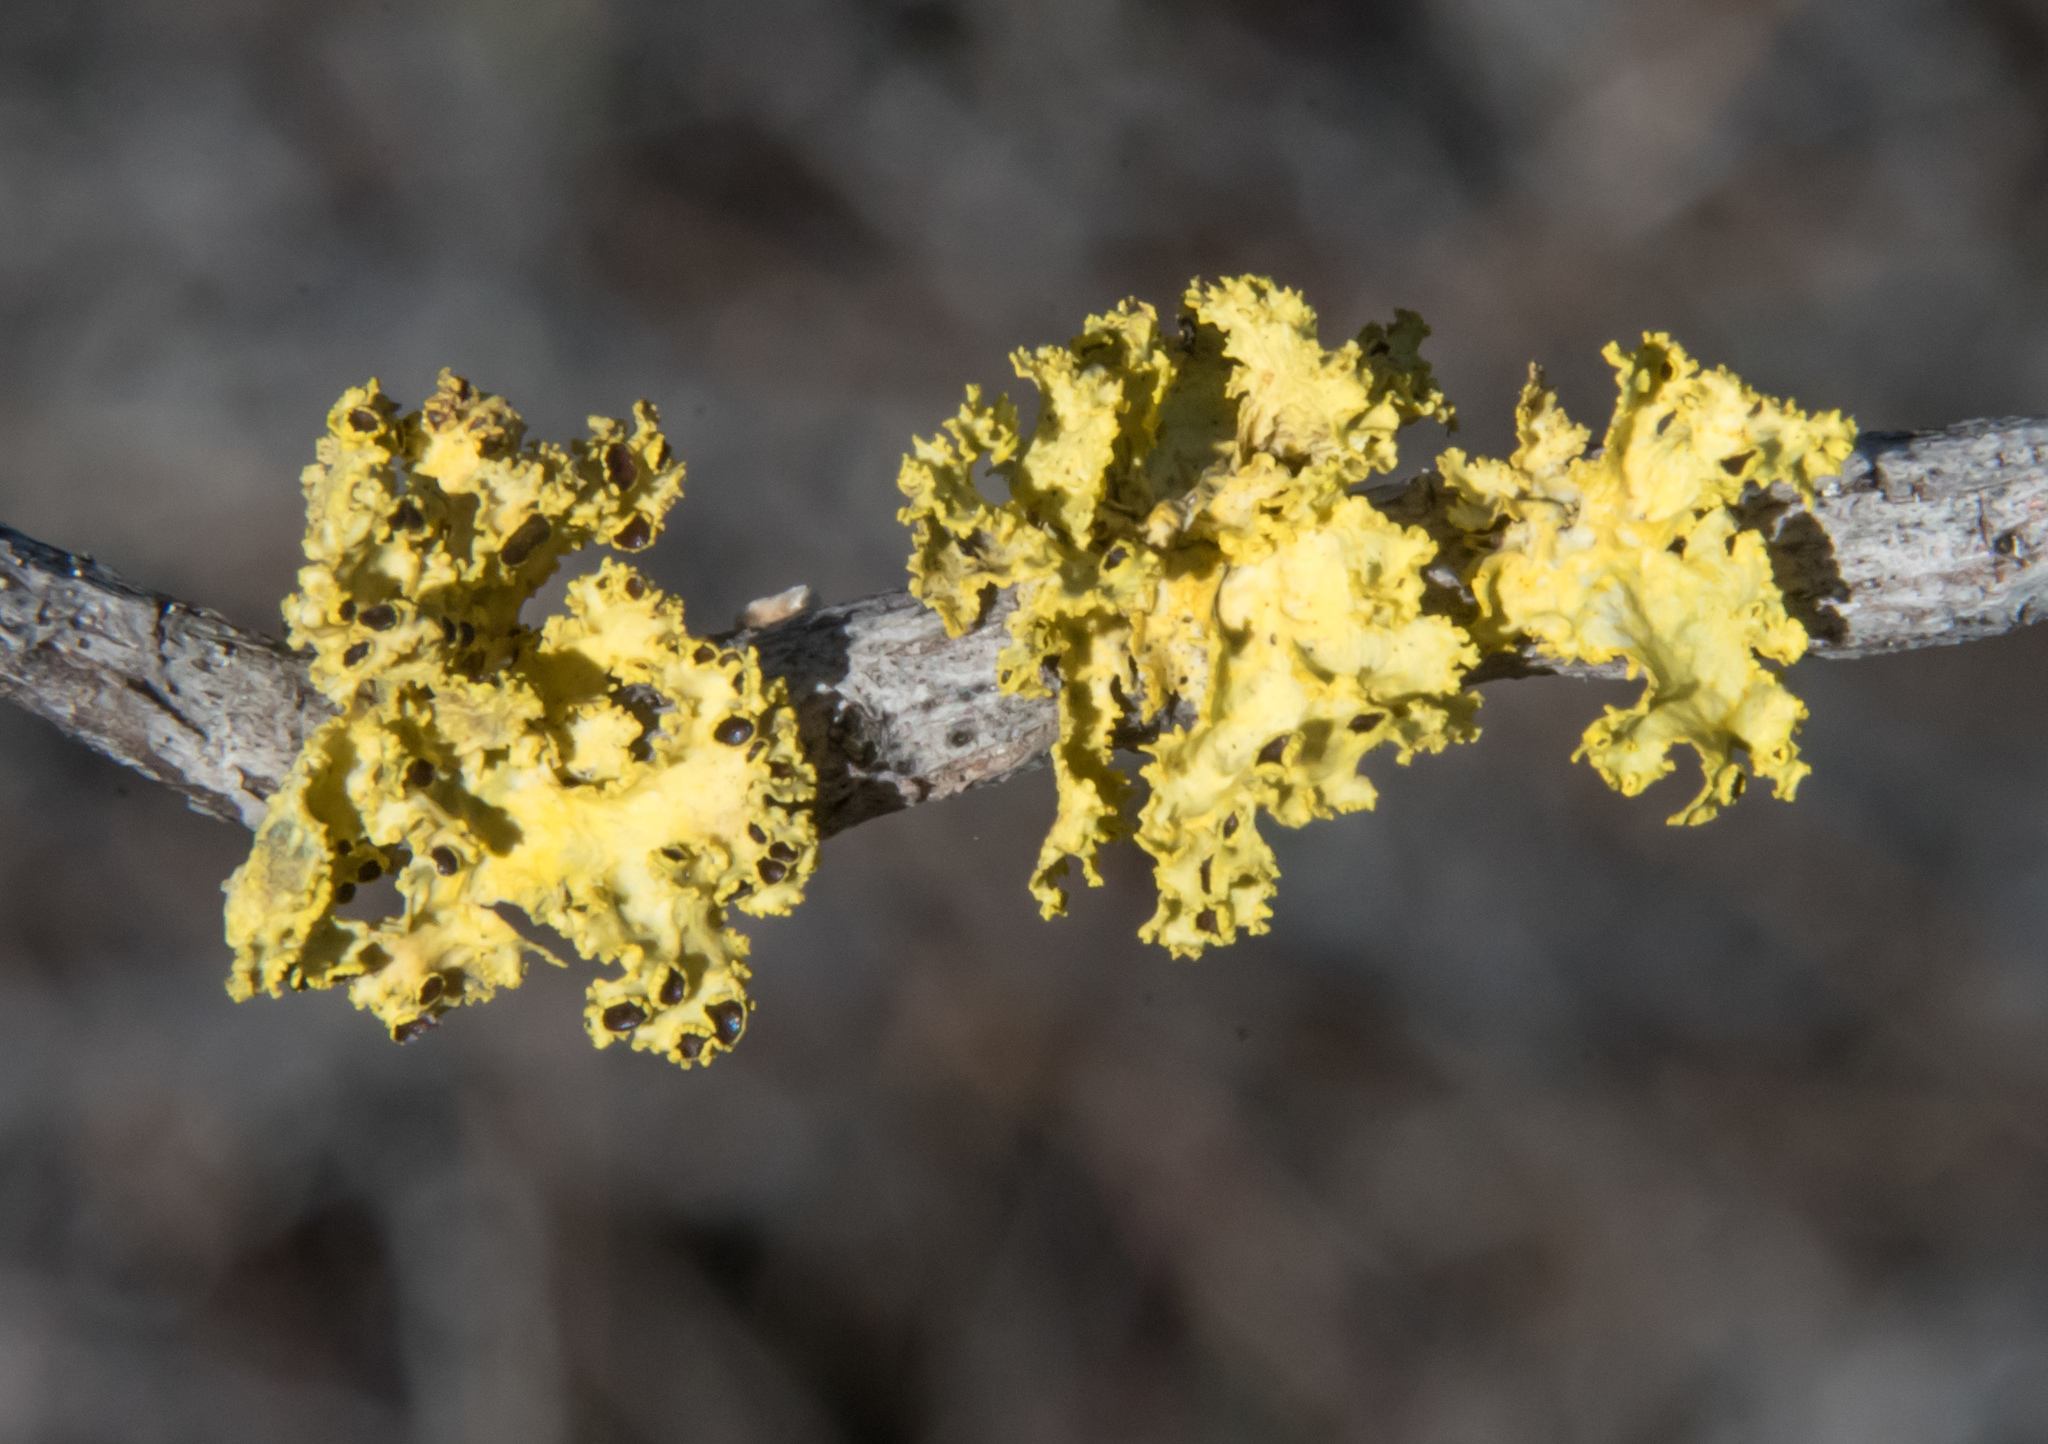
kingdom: Fungi
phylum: Ascomycota
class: Lecanoromycetes
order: Lecanorales
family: Parmeliaceae
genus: Vulpicida
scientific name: Vulpicida canadensis
